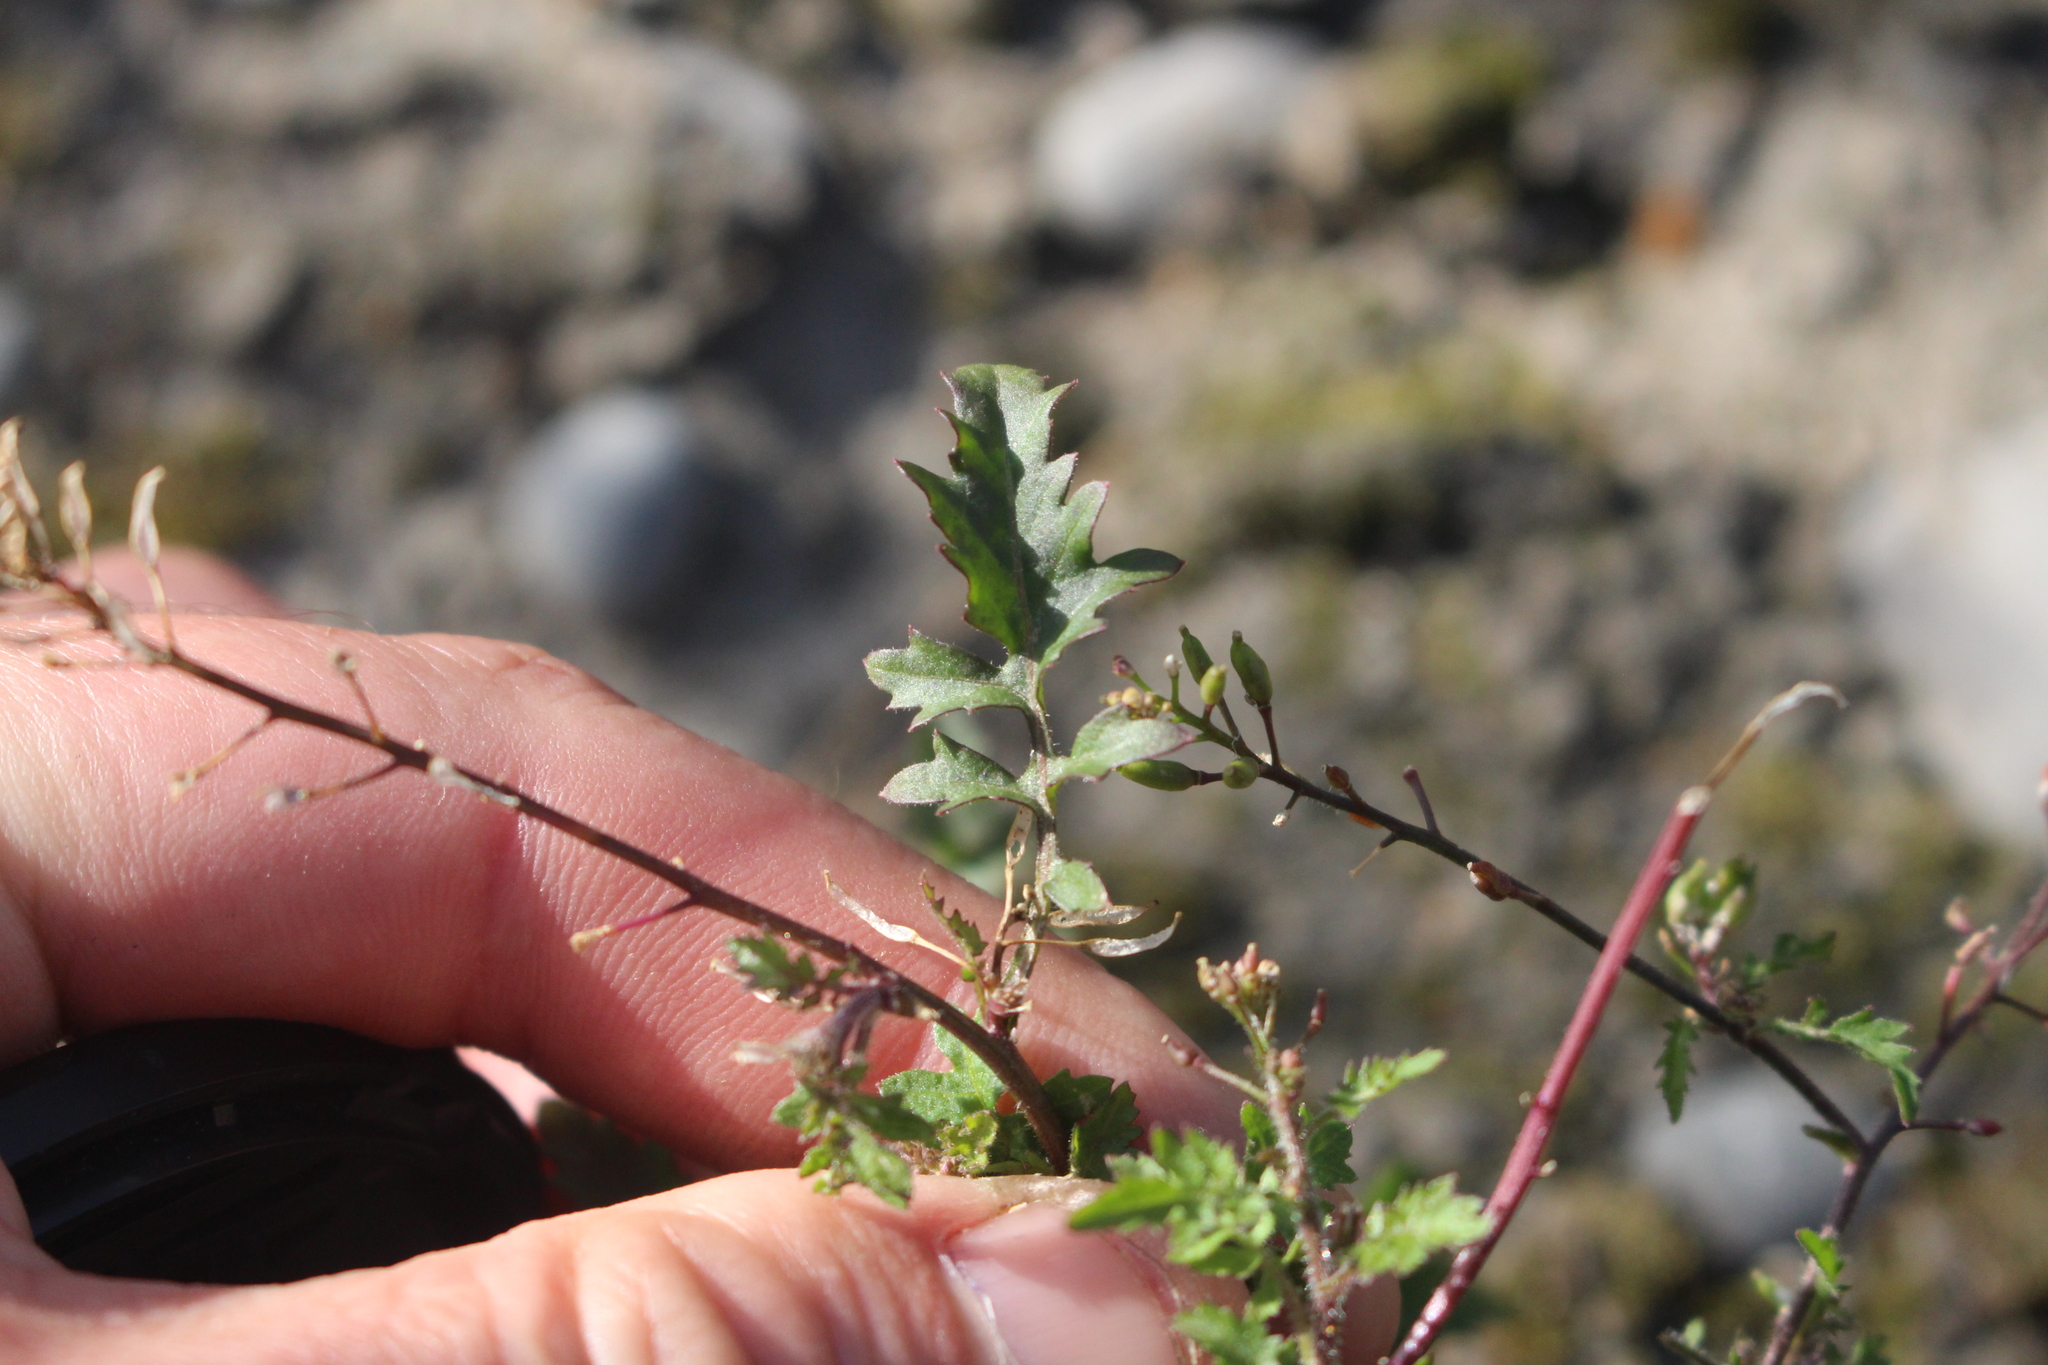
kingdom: Plantae
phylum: Tracheophyta
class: Magnoliopsida
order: Brassicales
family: Brassicaceae
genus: Rorippa
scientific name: Rorippa palustris
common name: Marsh yellow-cress
